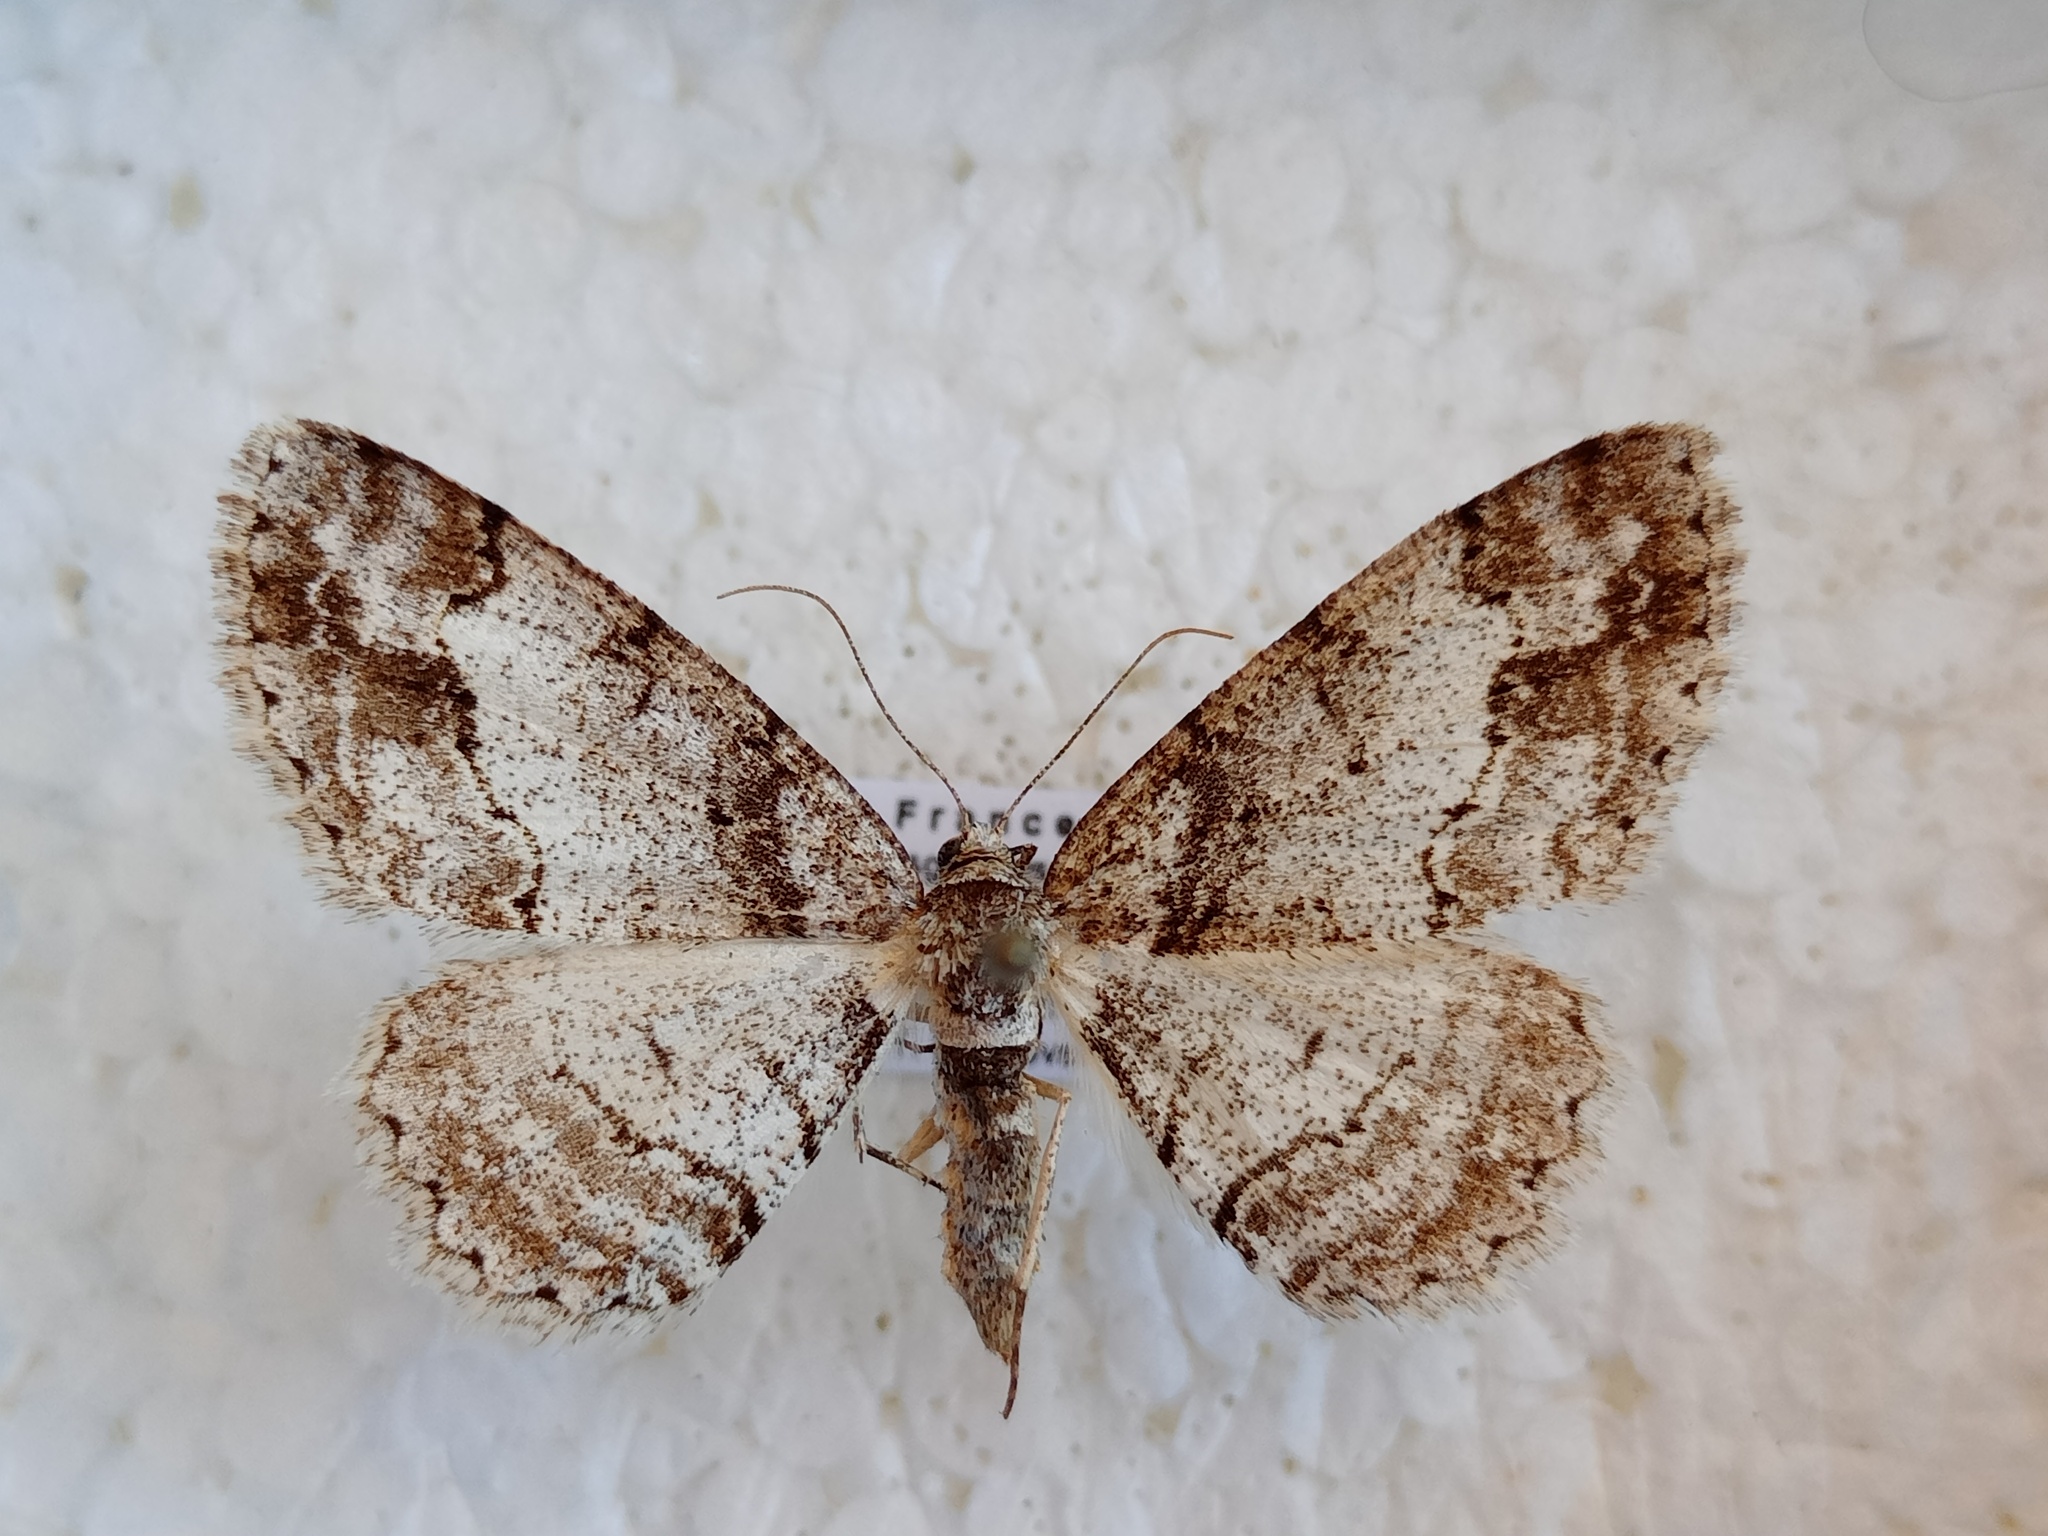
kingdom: Animalia
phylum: Arthropoda
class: Insecta
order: Lepidoptera
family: Geometridae
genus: Paradarisa
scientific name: Paradarisa consonaria
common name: Square spot
